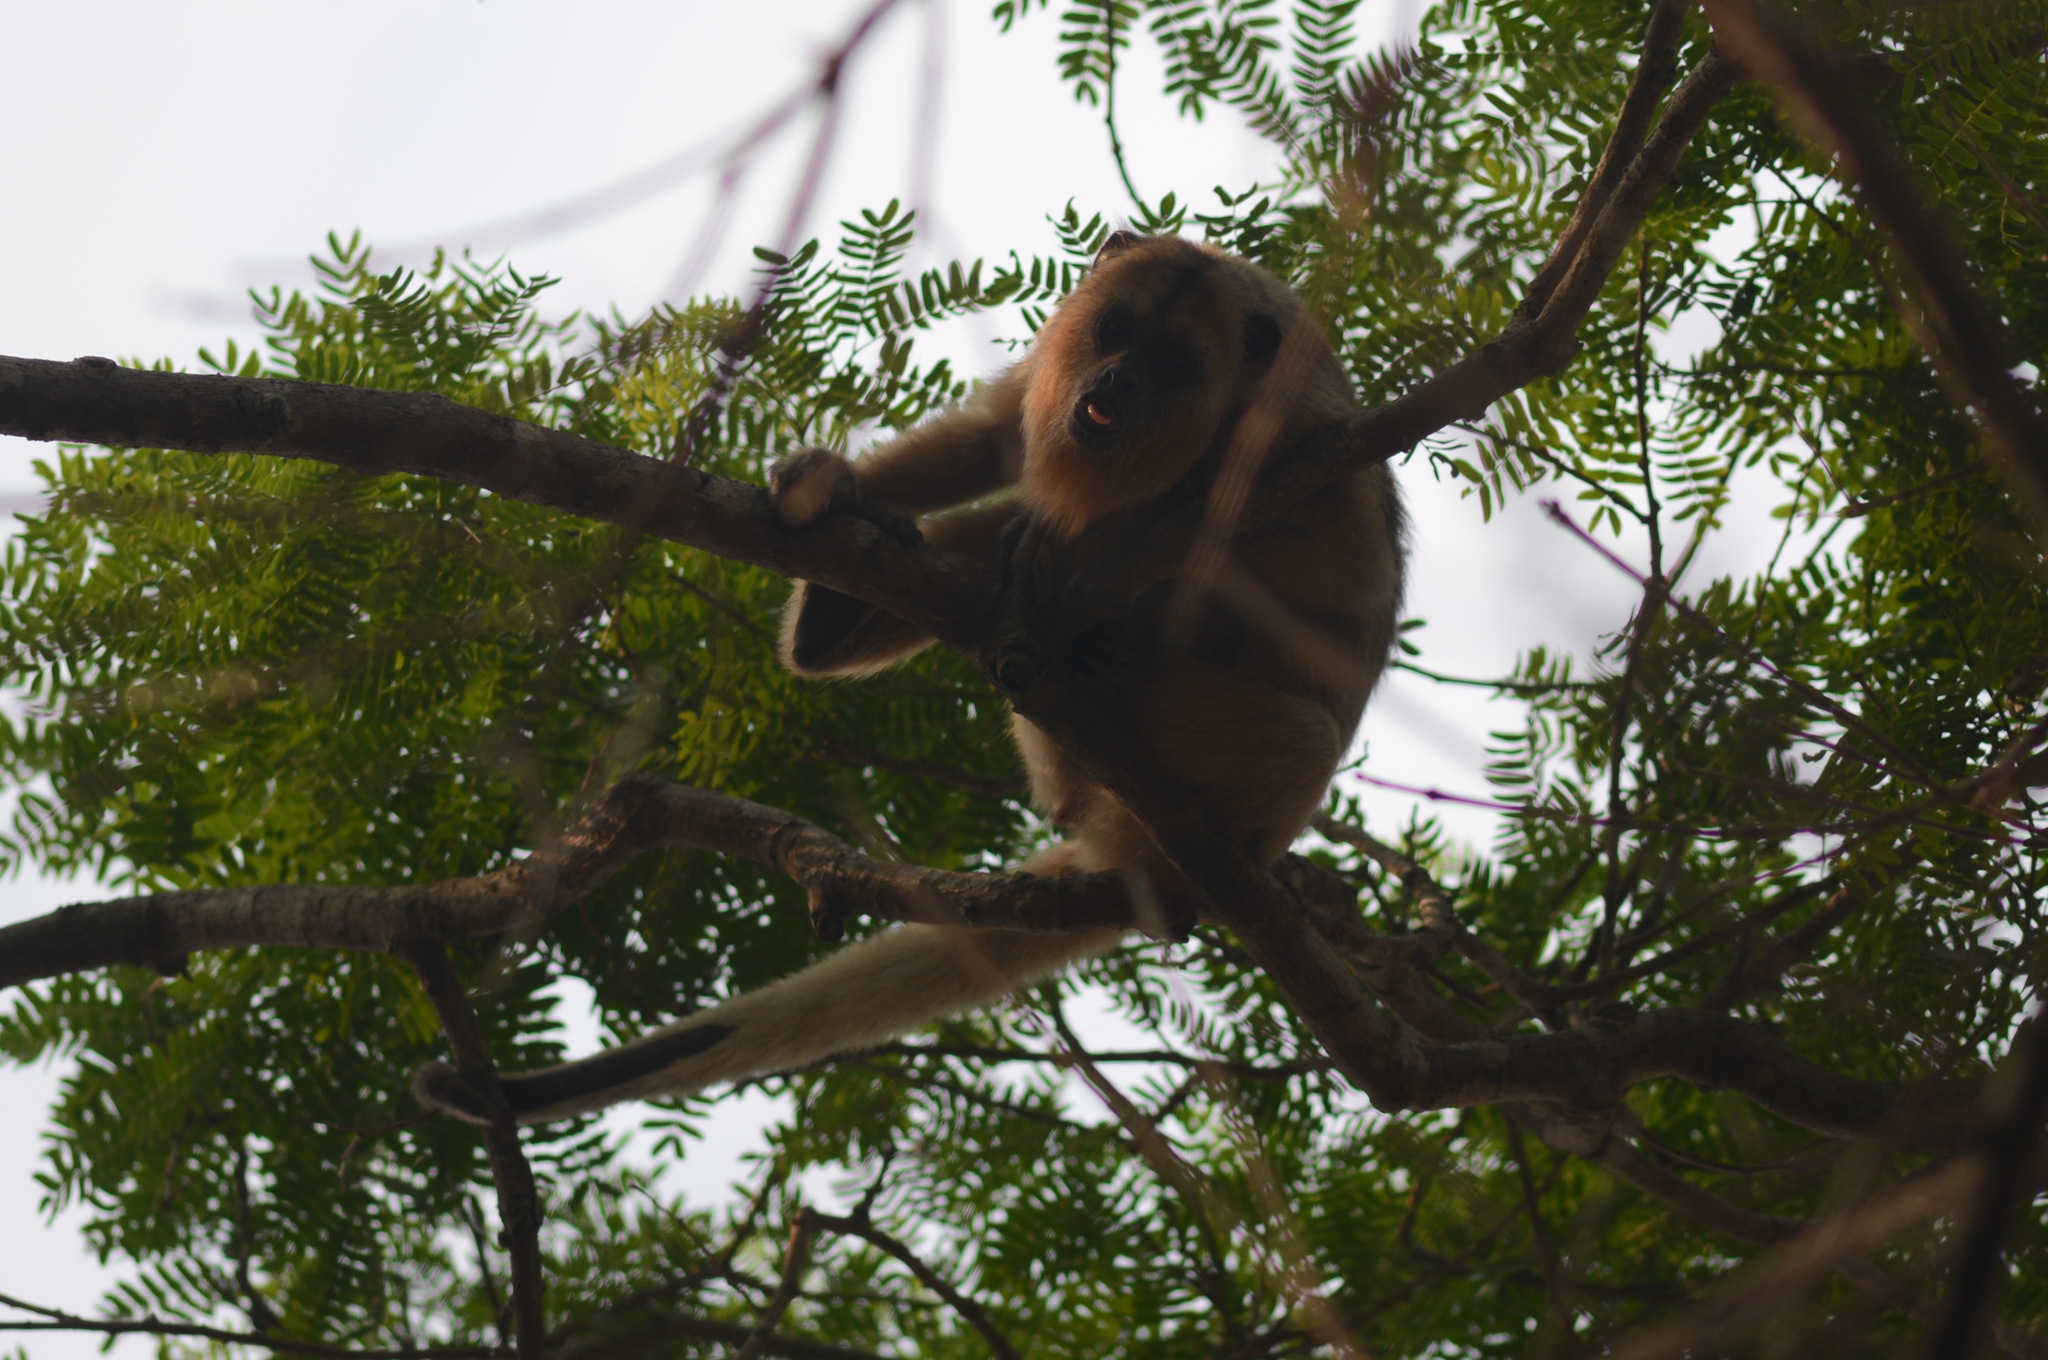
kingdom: Animalia
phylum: Chordata
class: Mammalia
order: Primates
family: Atelidae
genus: Alouatta
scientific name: Alouatta caraya
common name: Black howler
